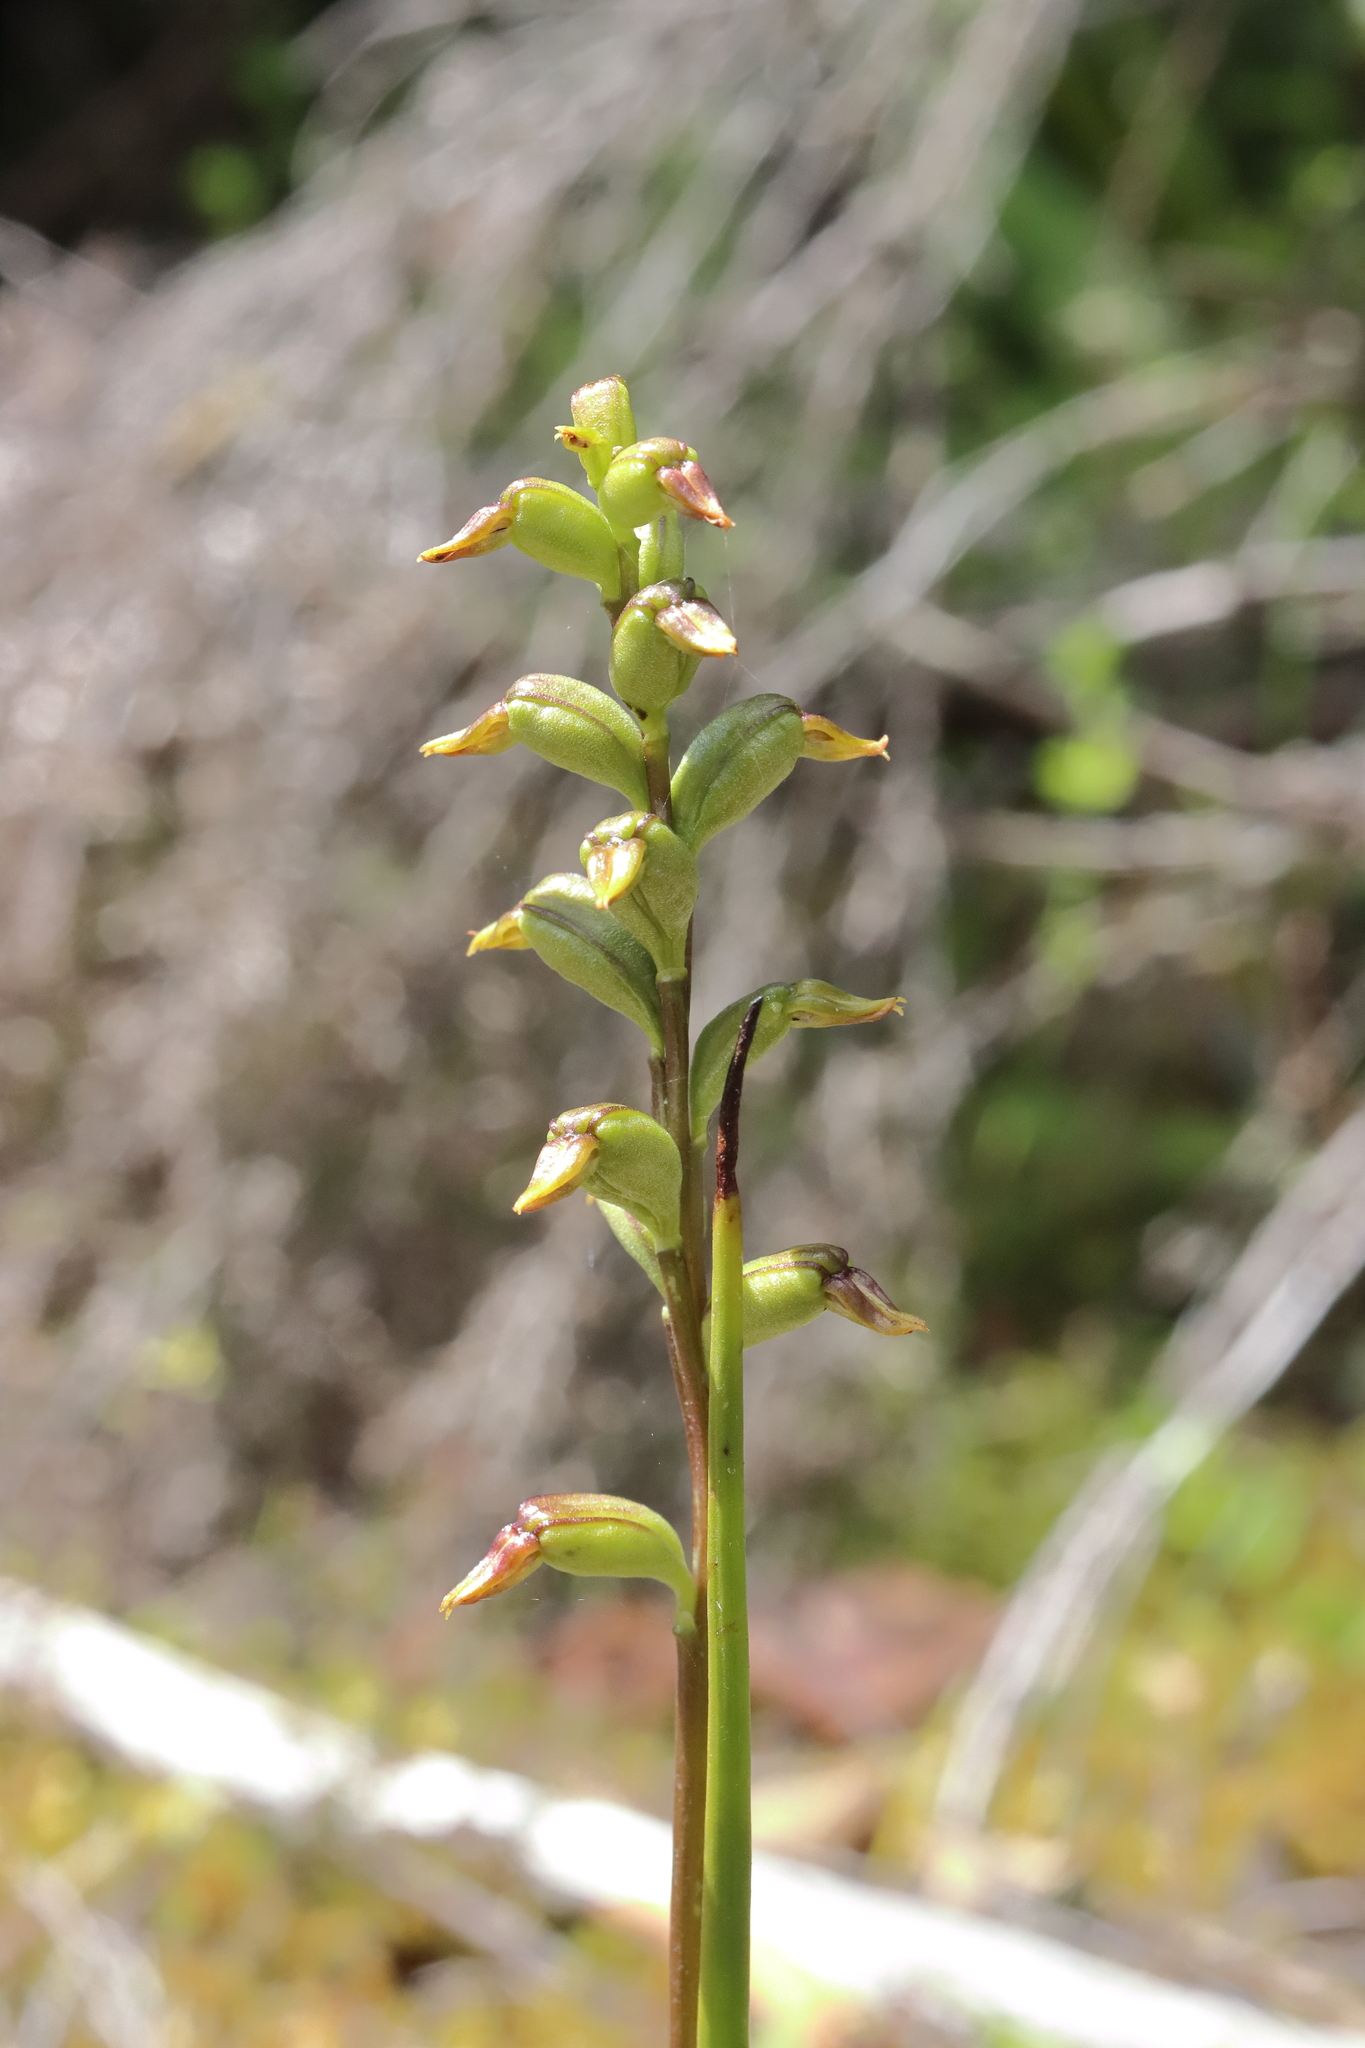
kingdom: Plantae
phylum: Tracheophyta
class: Liliopsida
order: Asparagales
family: Orchidaceae
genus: Prasophyllum
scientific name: Prasophyllum colensoi
